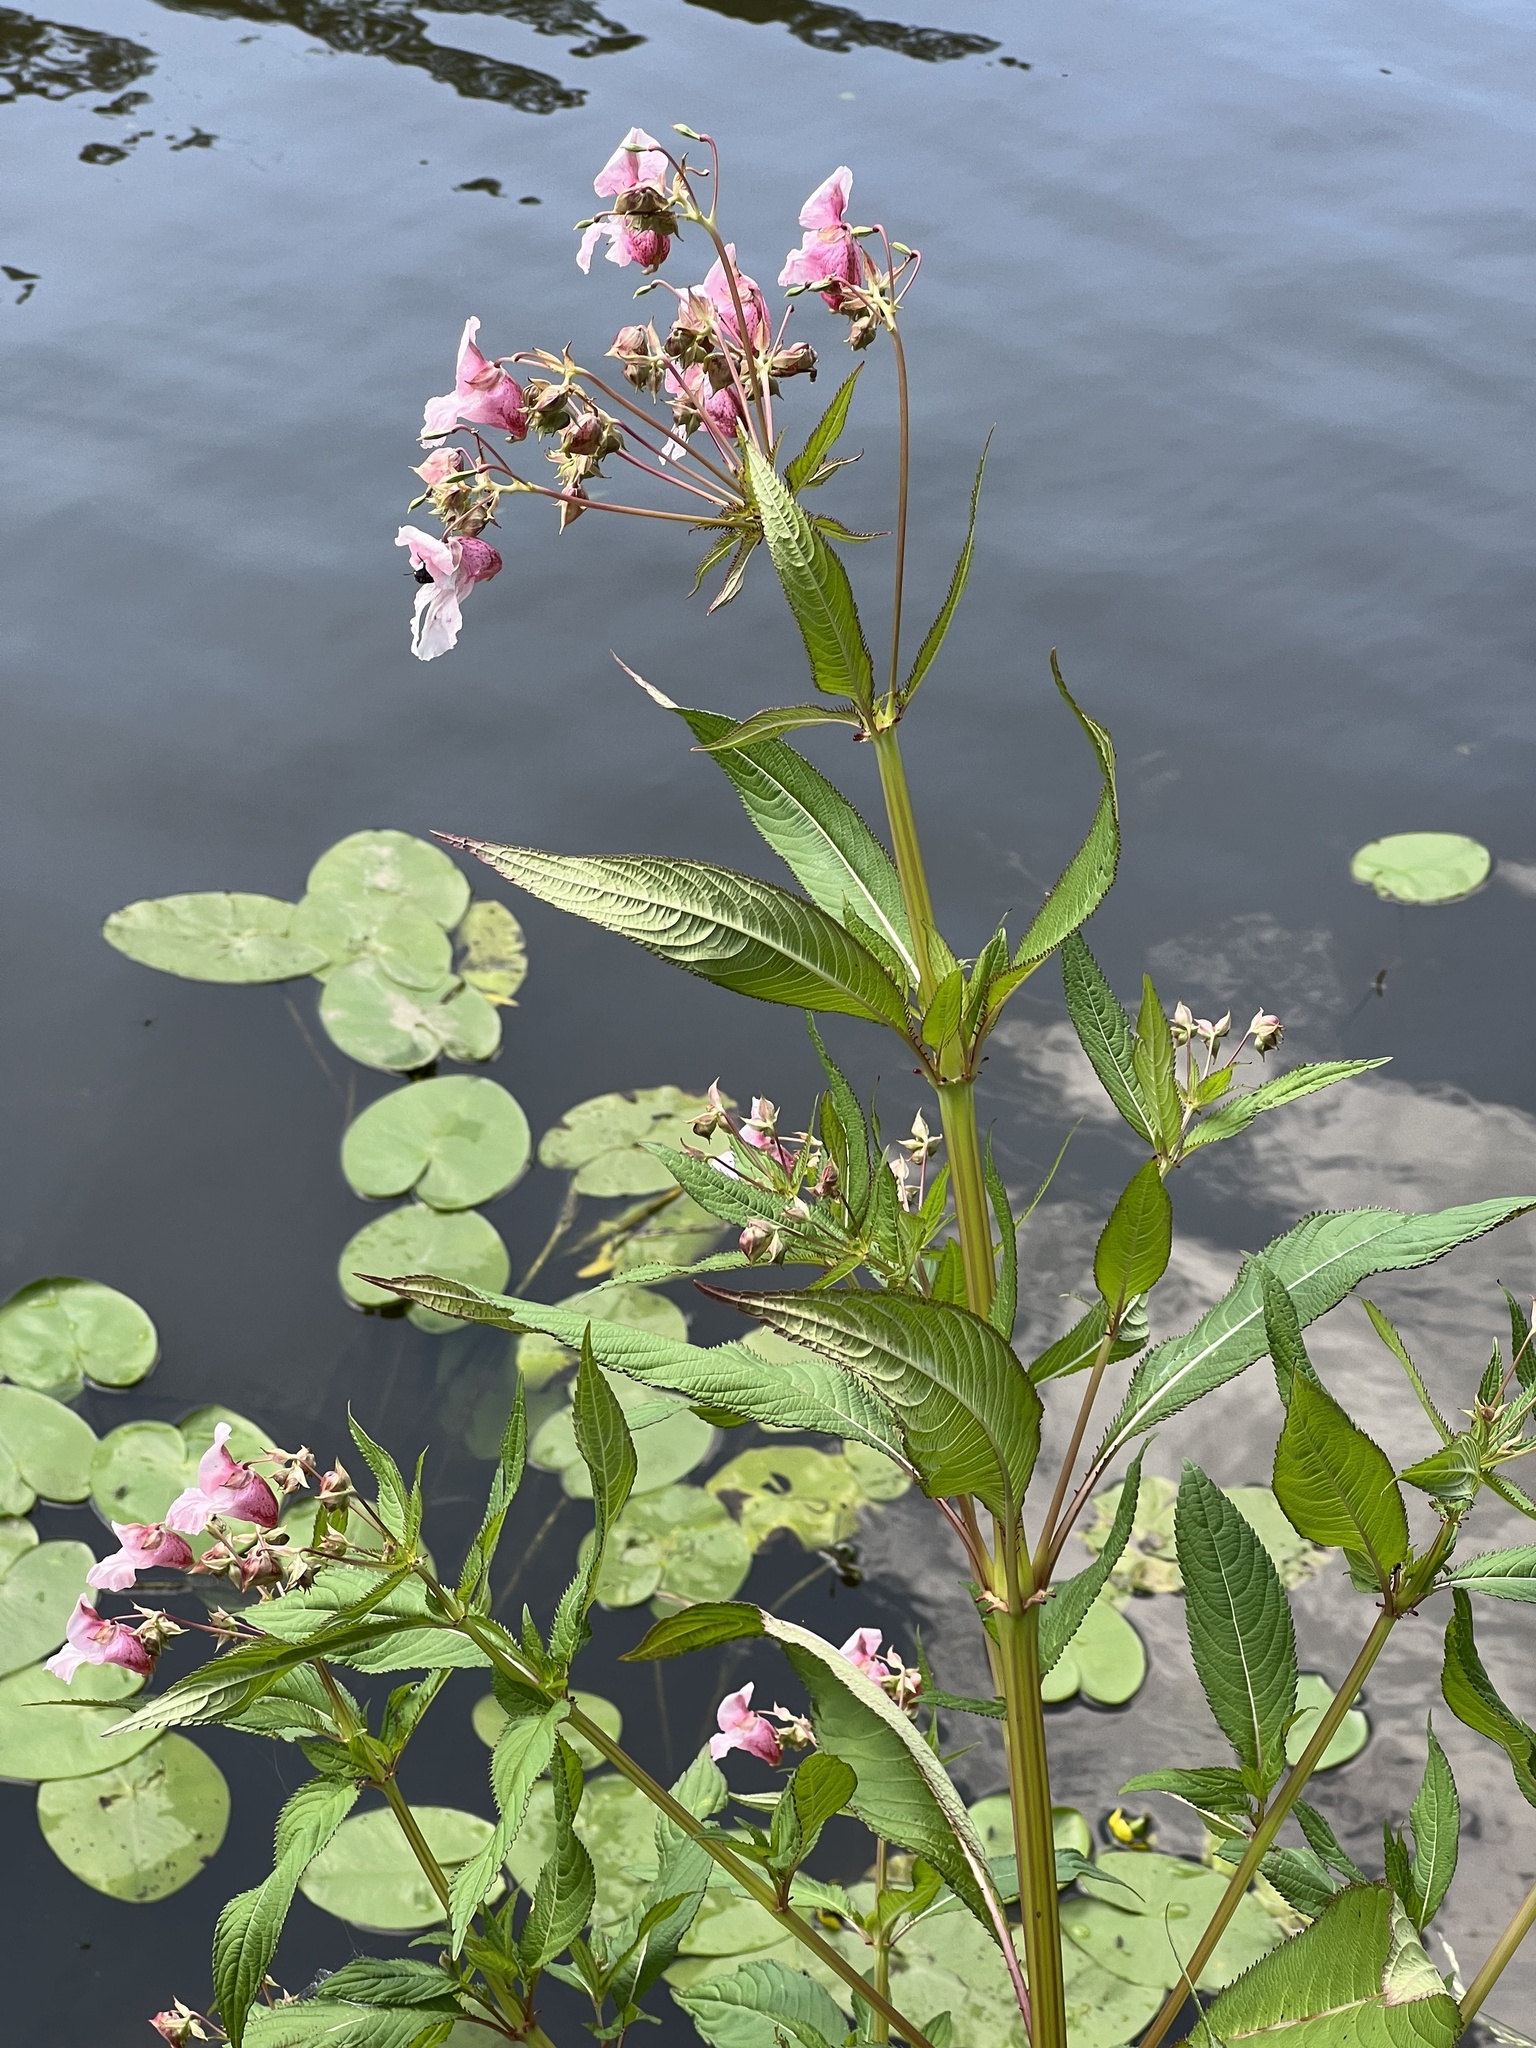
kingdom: Plantae
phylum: Tracheophyta
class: Magnoliopsida
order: Ericales
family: Balsaminaceae
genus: Impatiens
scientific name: Impatiens glandulifera
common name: Himalayan balsam
